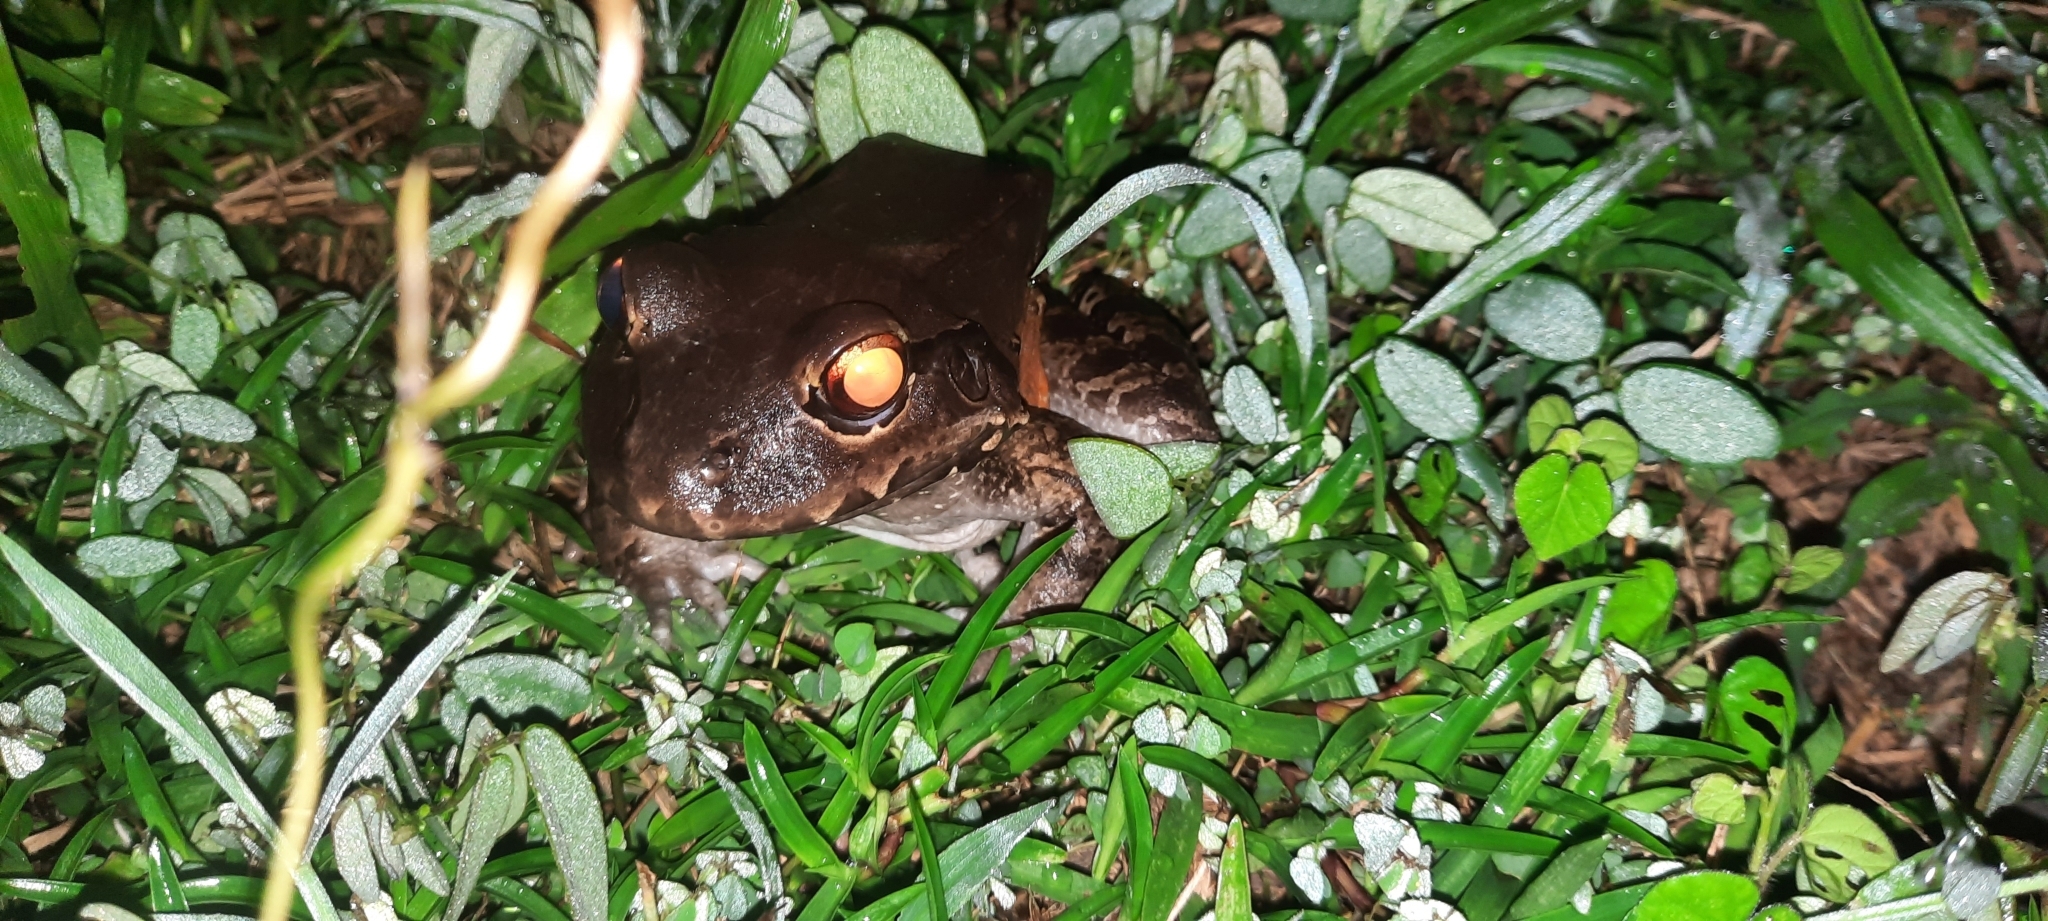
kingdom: Animalia
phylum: Chordata
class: Amphibia
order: Anura
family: Leptodactylidae
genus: Leptodactylus
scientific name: Leptodactylus savagei
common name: Savage's thin-toed frog
